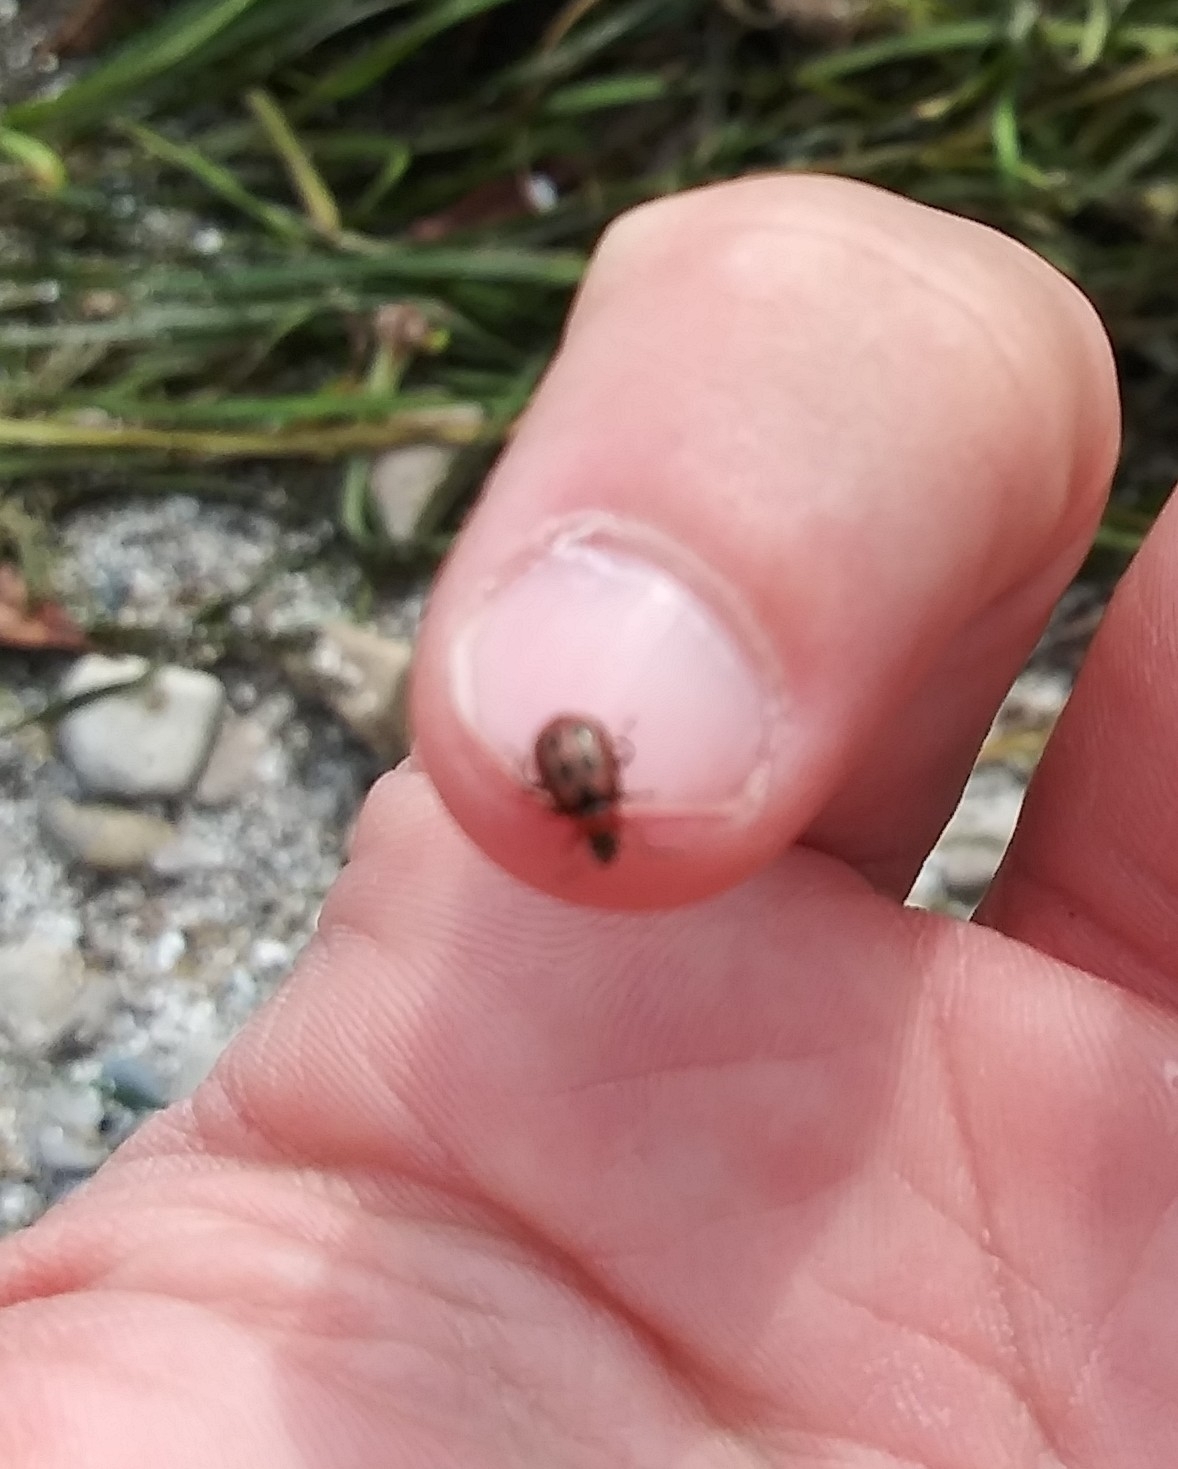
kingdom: Animalia
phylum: Arthropoda
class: Insecta
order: Coleoptera
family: Chrysomelidae
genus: Cerotoma
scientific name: Cerotoma trifurcata
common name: Bean leaf beetle
